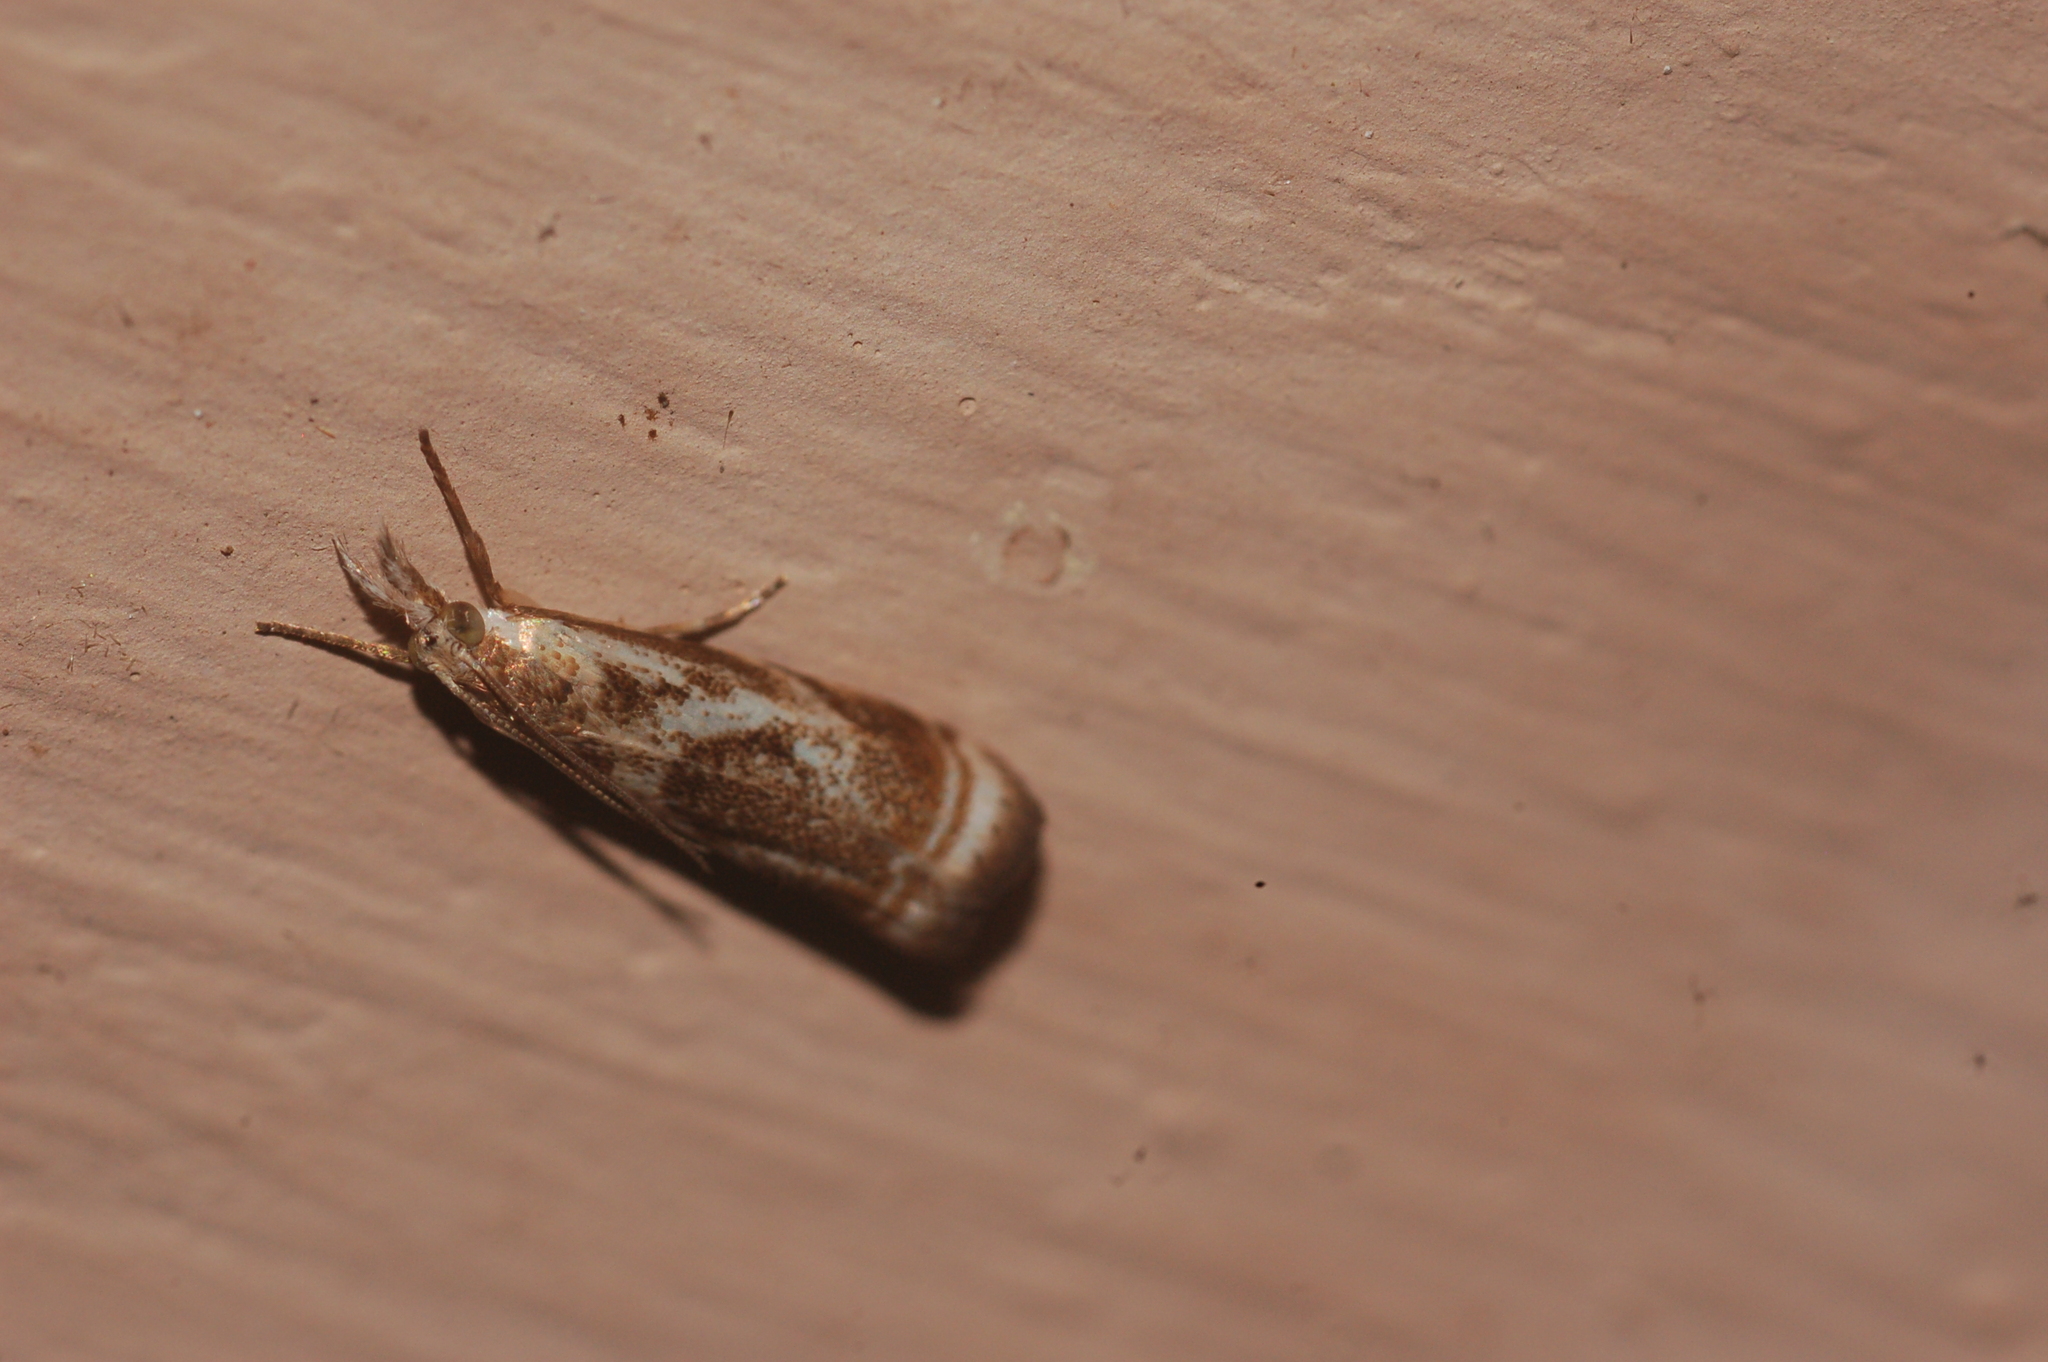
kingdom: Animalia
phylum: Arthropoda
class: Insecta
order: Lepidoptera
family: Crambidae
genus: Microcrambus
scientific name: Microcrambus elegans
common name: Elegant grass-veneer
